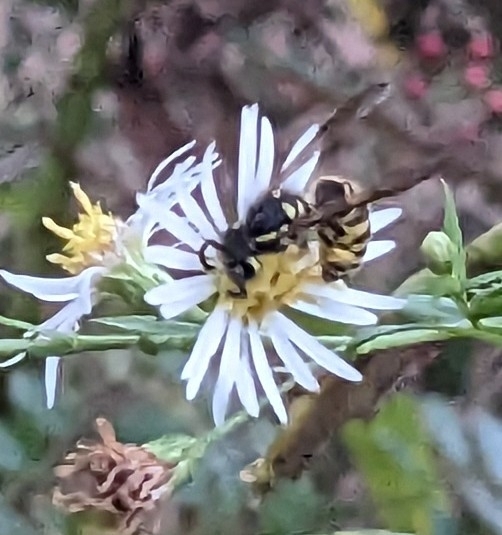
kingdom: Animalia
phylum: Arthropoda
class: Insecta
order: Hymenoptera
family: Vespidae
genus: Vespula
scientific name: Vespula maculifrons
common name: Eastern yellowjacket
